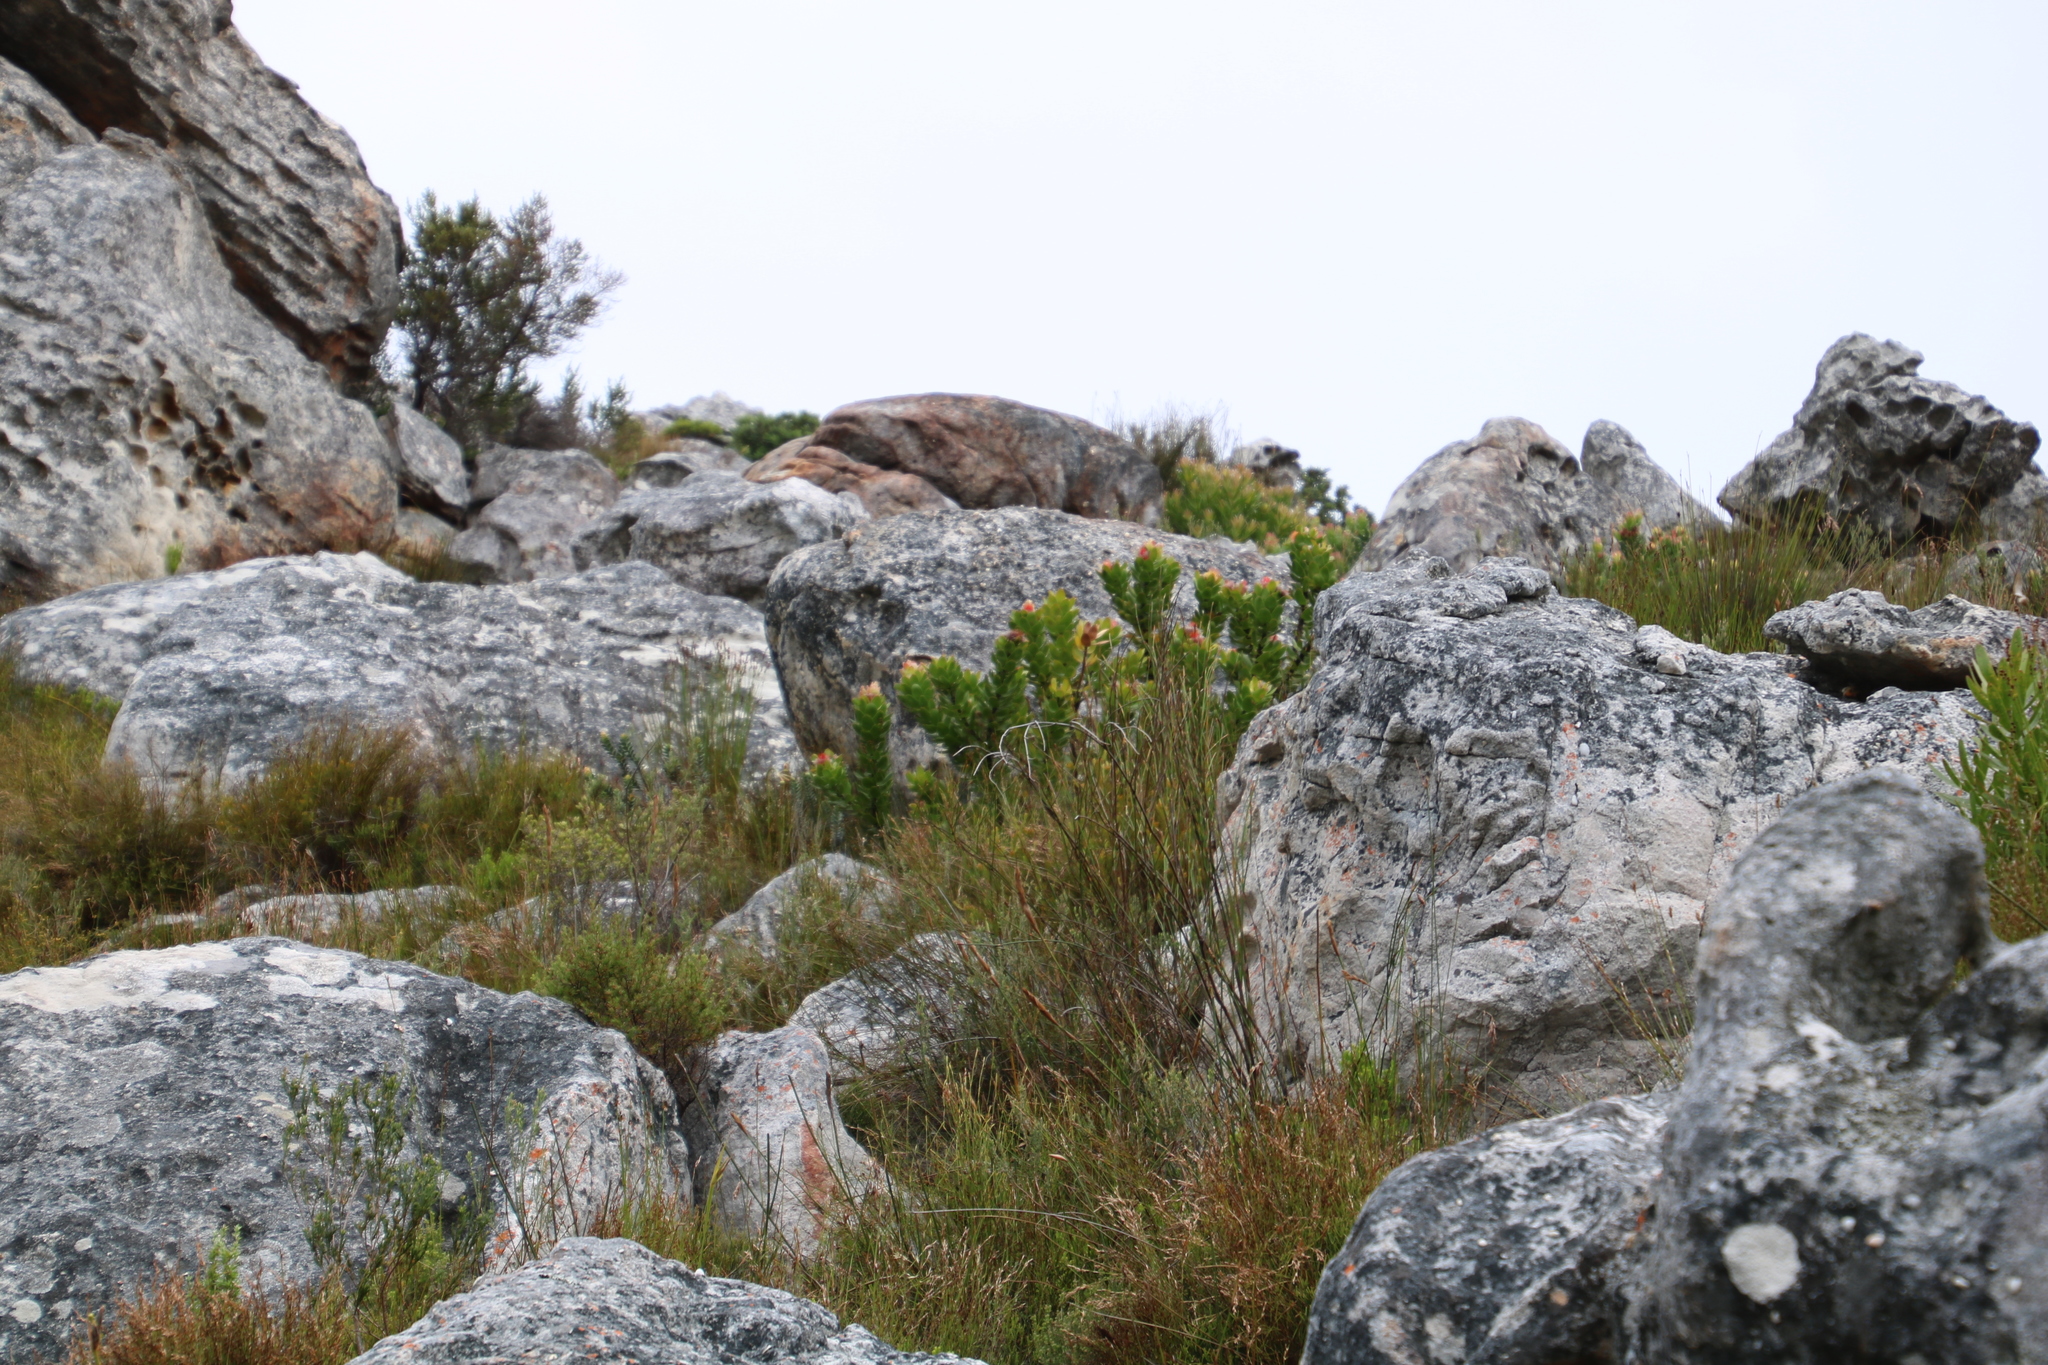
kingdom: Plantae
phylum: Tracheophyta
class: Magnoliopsida
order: Proteales
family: Proteaceae
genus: Leucospermum
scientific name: Leucospermum oleifolium
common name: Matches
